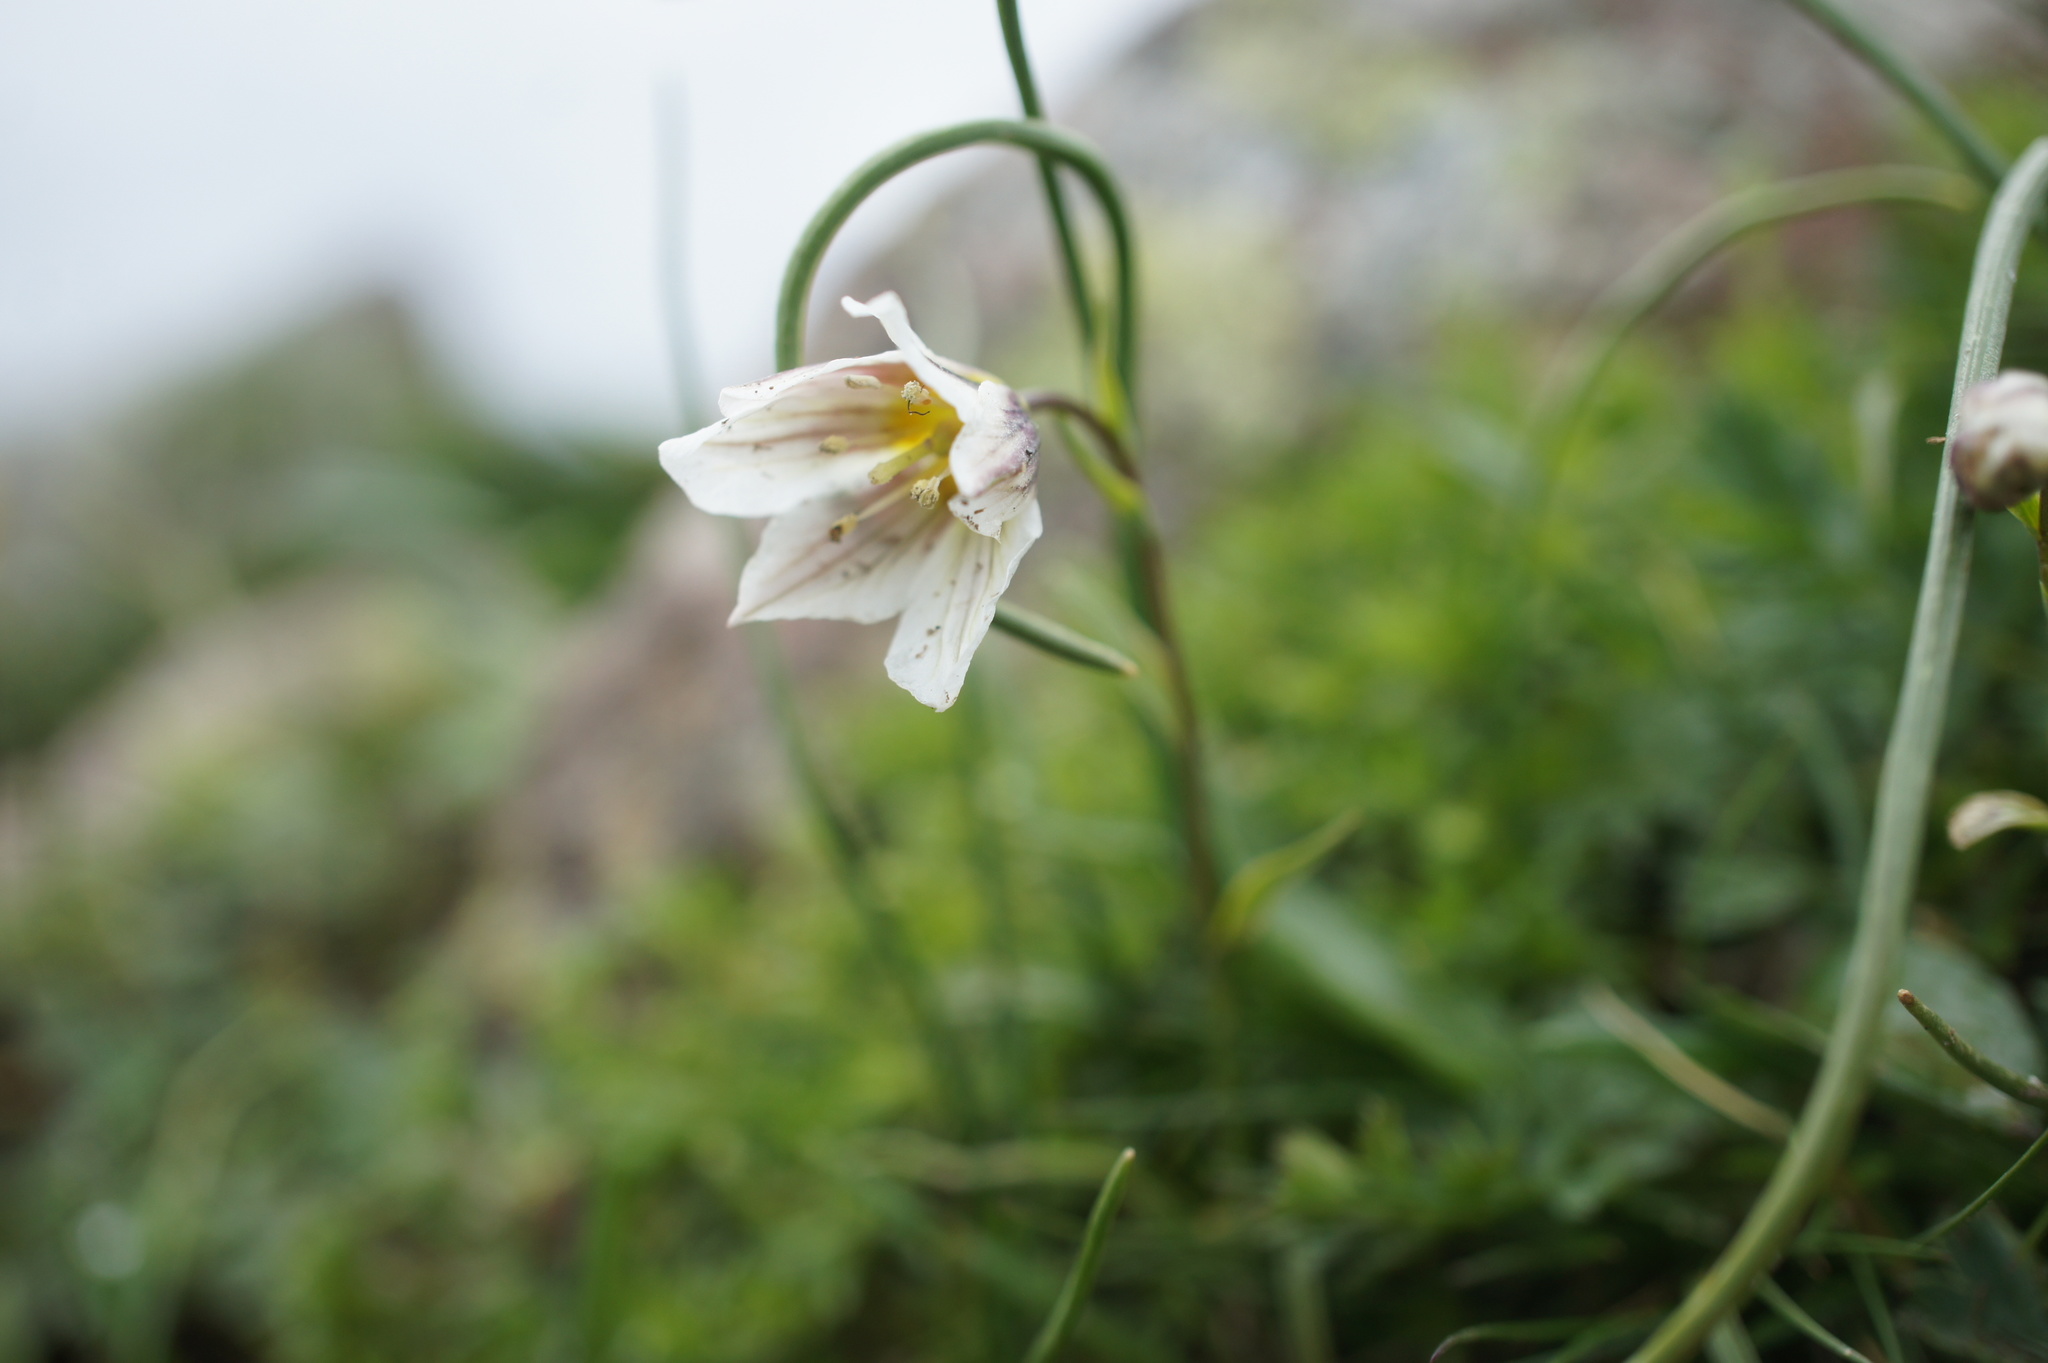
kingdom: Plantae
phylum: Tracheophyta
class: Liliopsida
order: Liliales
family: Liliaceae
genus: Gagea
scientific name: Gagea serotina
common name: Snowdon lily
